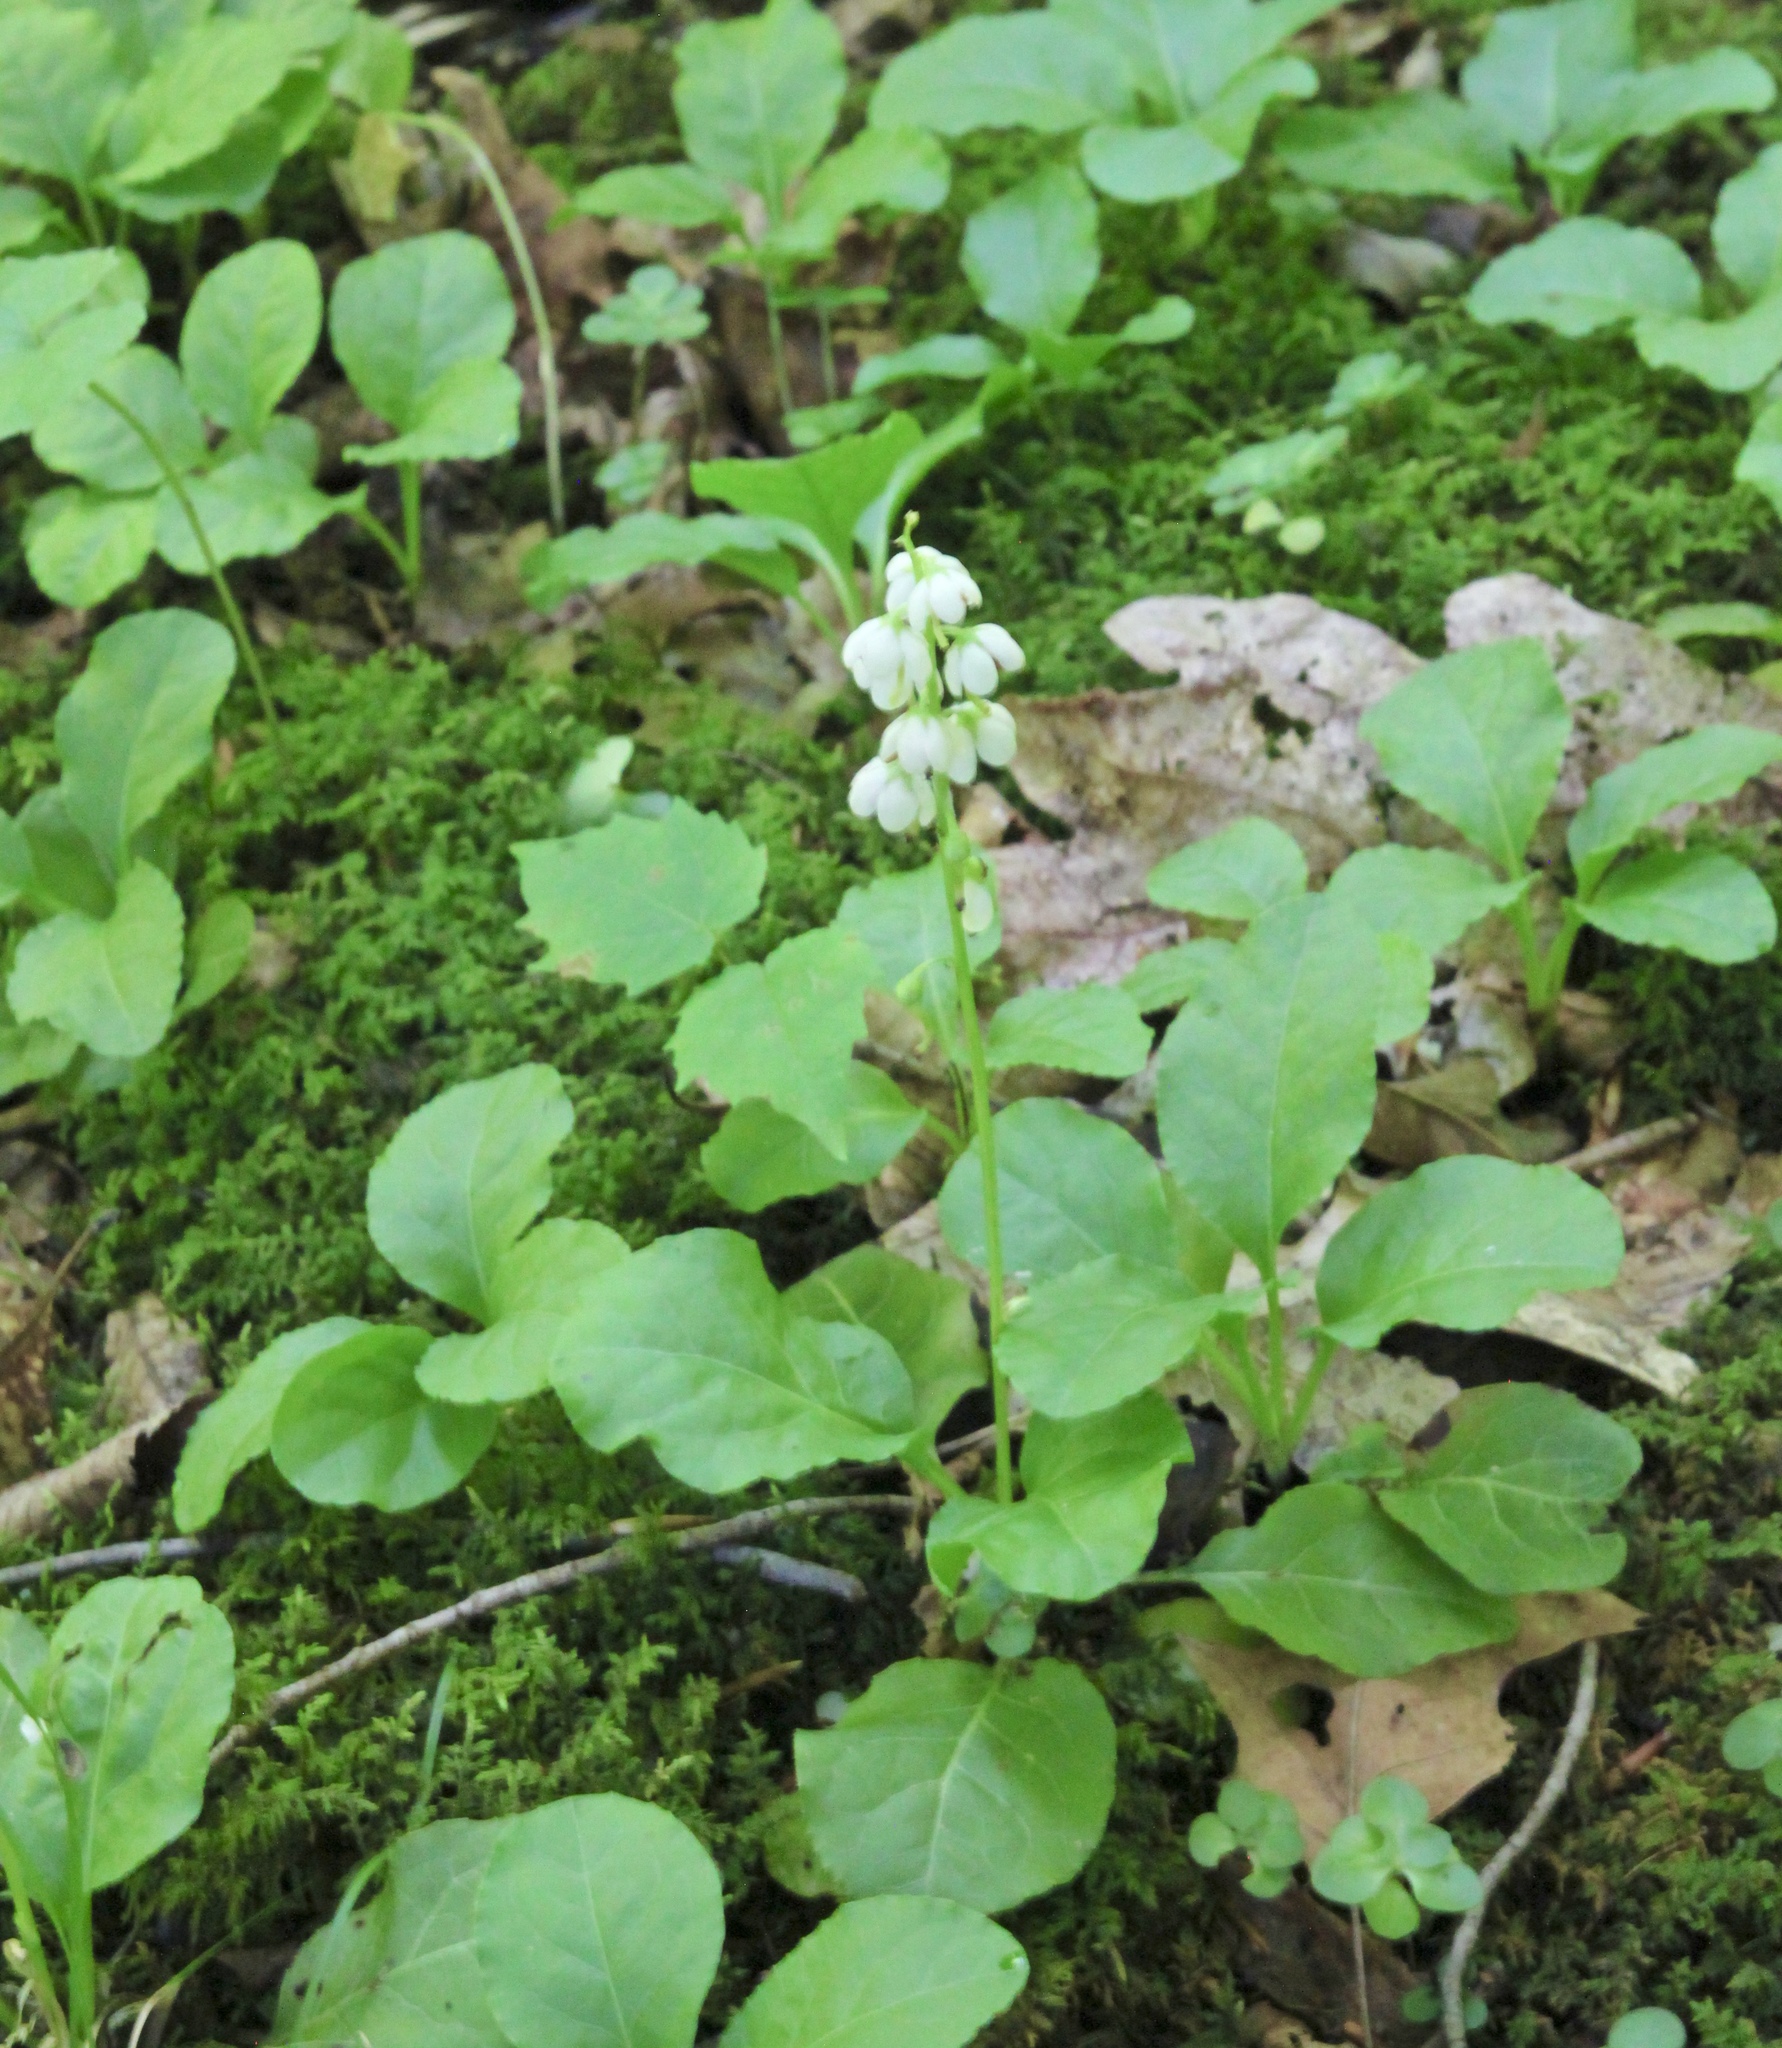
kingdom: Plantae
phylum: Tracheophyta
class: Magnoliopsida
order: Ericales
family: Ericaceae
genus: Pyrola
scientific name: Pyrola elliptica
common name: Shinleaf
